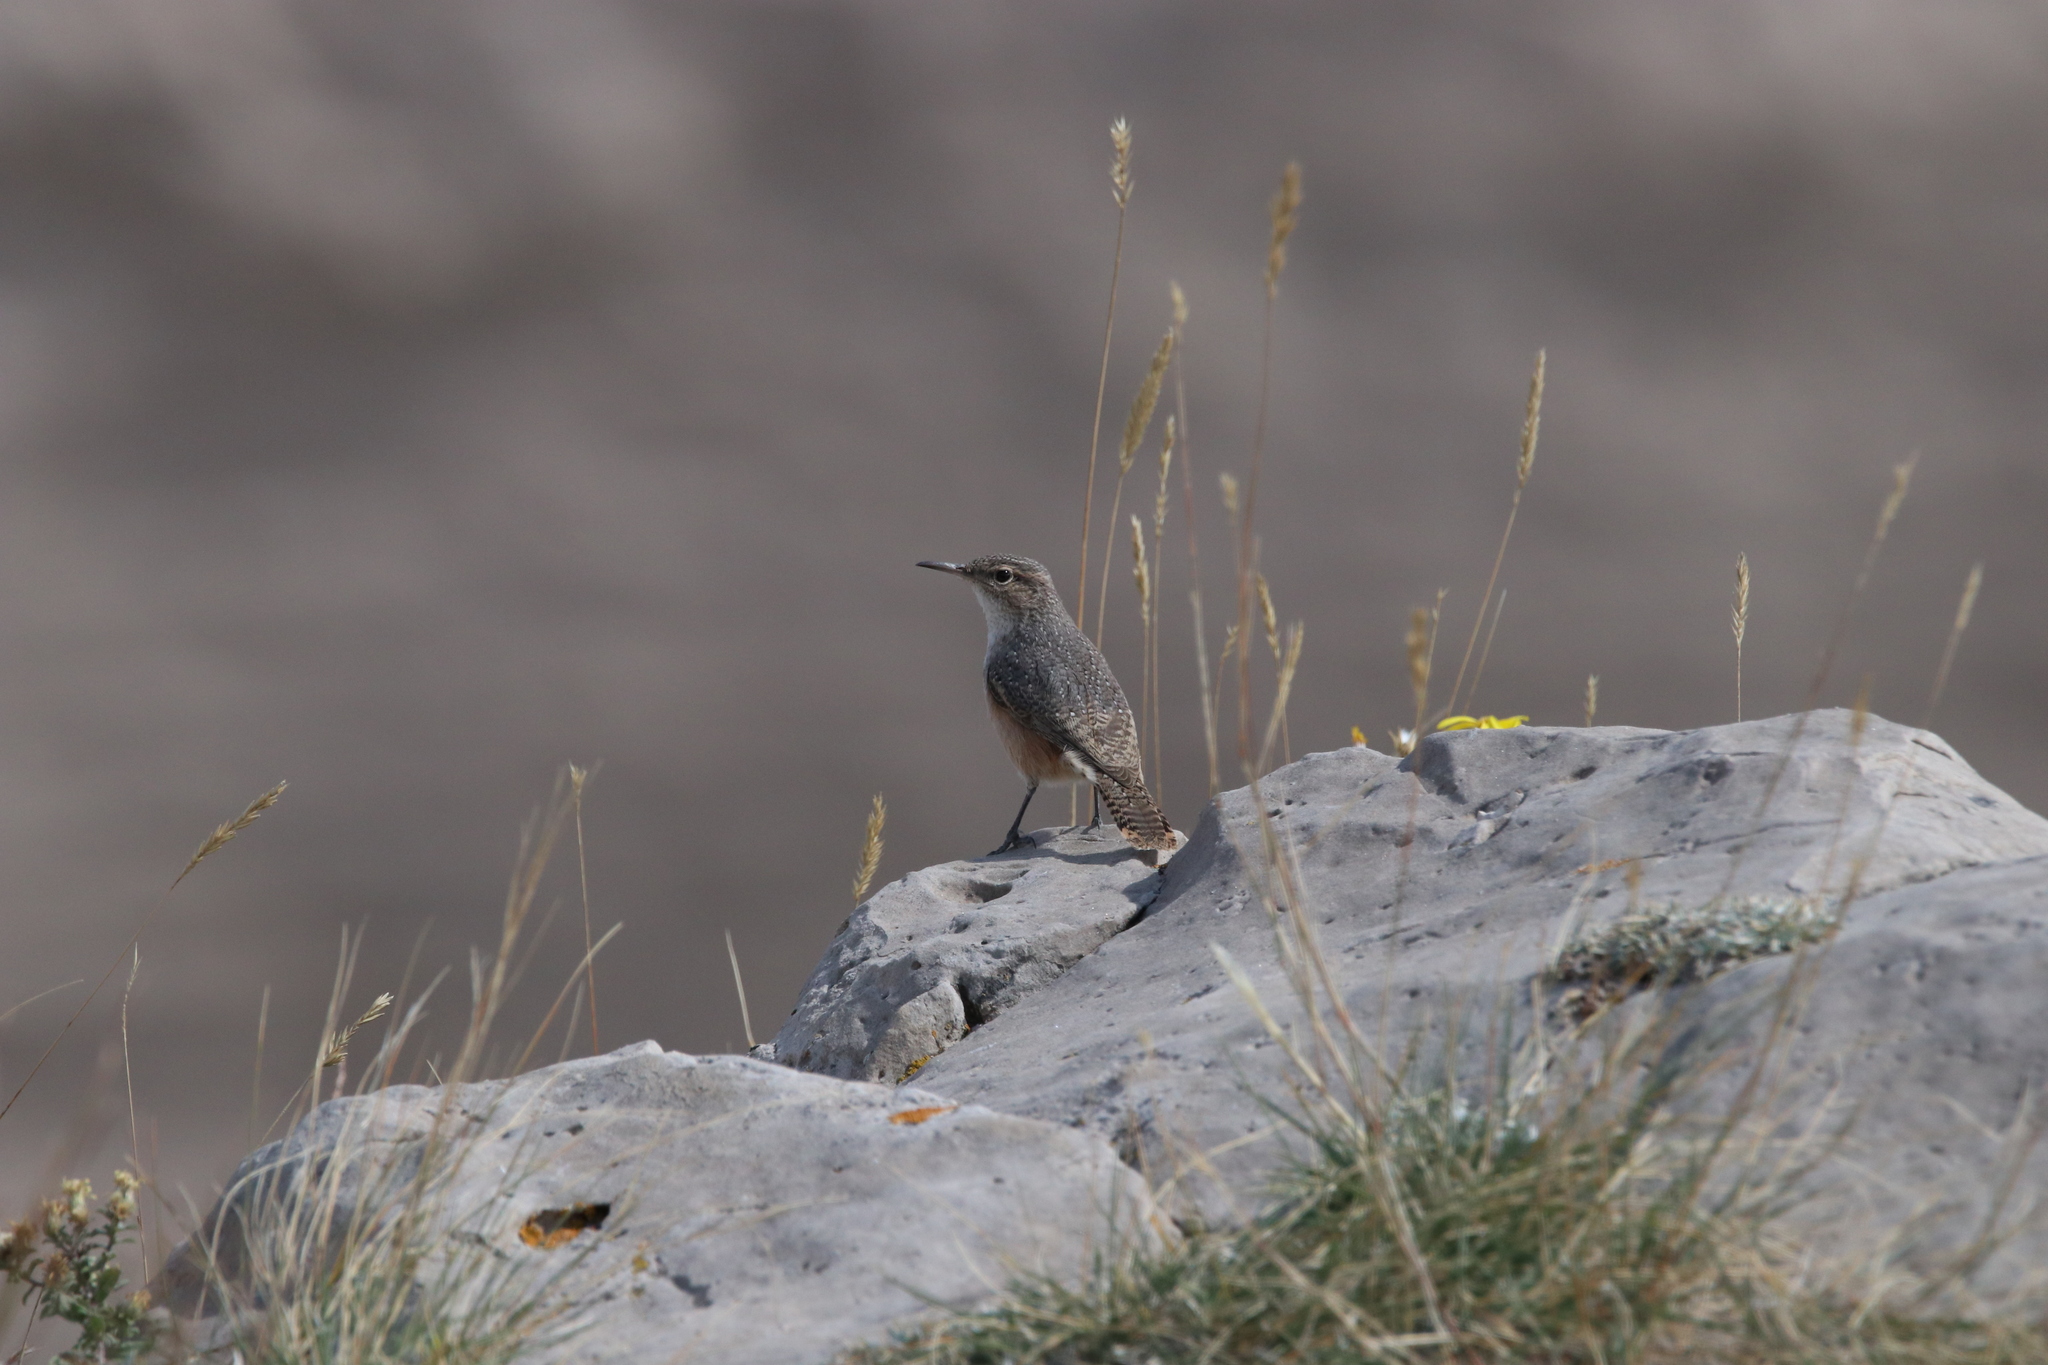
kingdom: Animalia
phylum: Chordata
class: Aves
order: Passeriformes
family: Troglodytidae
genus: Salpinctes
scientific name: Salpinctes obsoletus
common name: Rock wren
